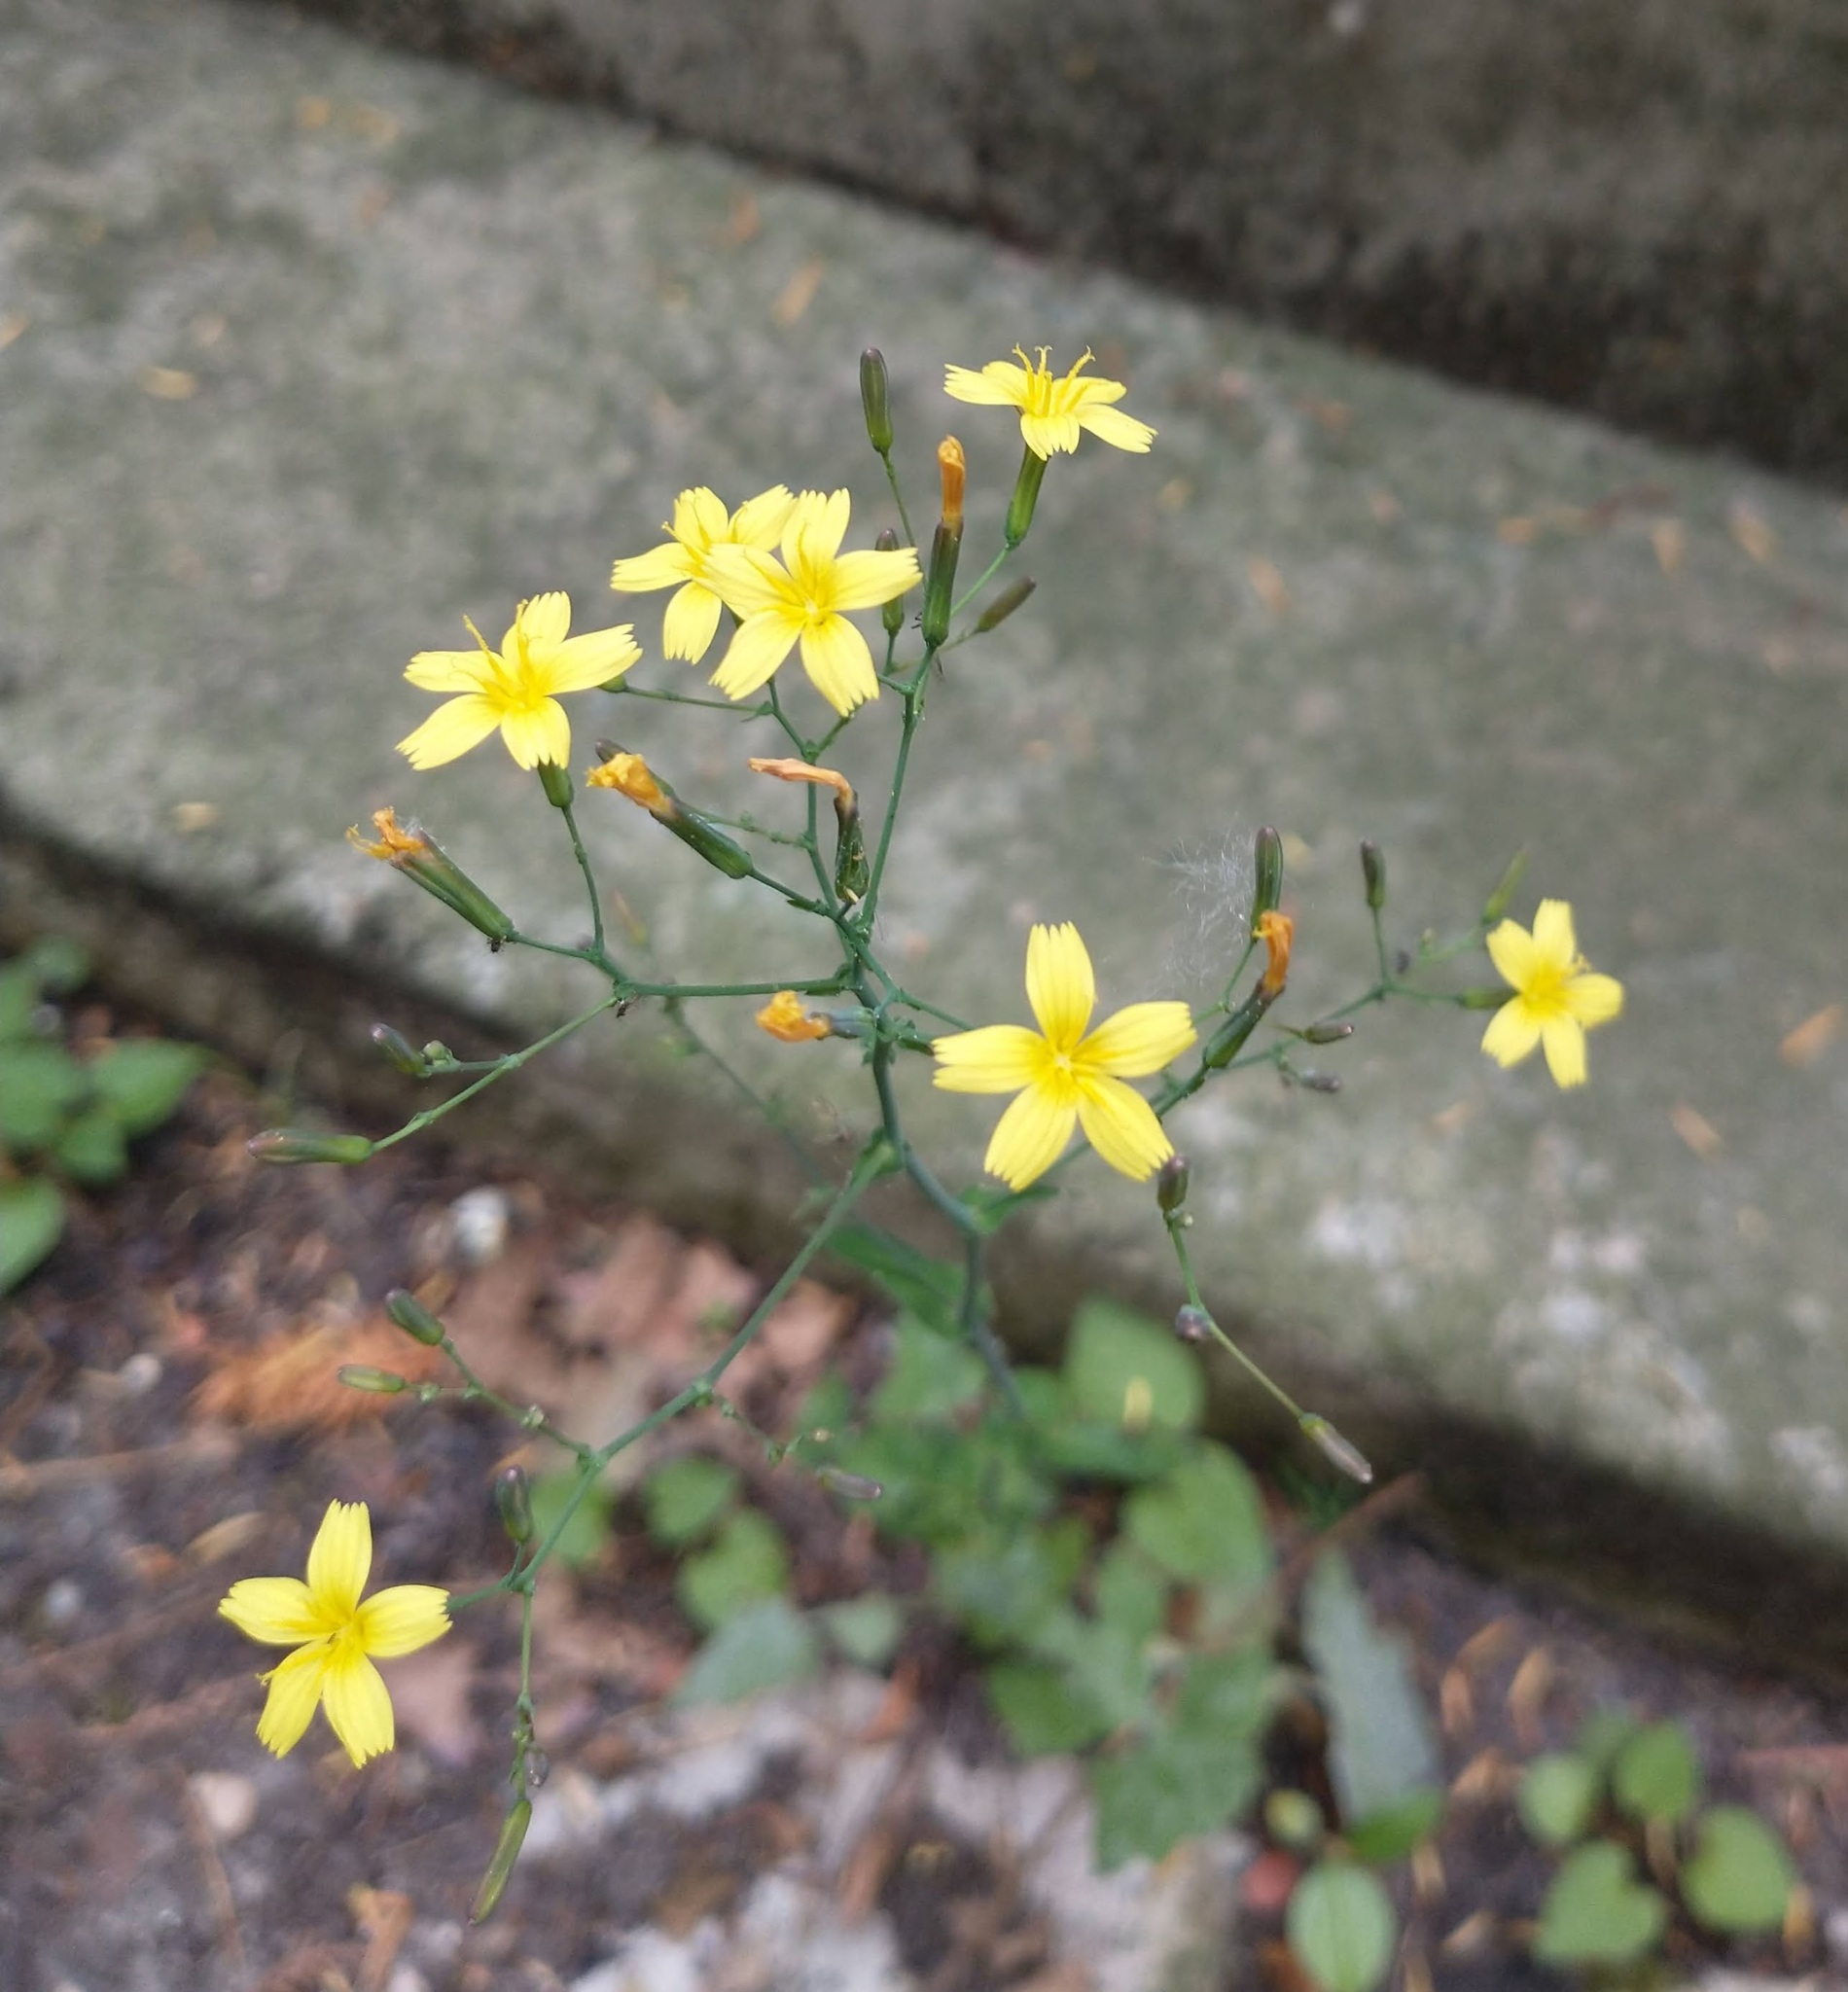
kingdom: Plantae
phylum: Tracheophyta
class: Magnoliopsida
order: Asterales
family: Asteraceae
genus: Mycelis
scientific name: Mycelis muralis
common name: Wall lettuce
